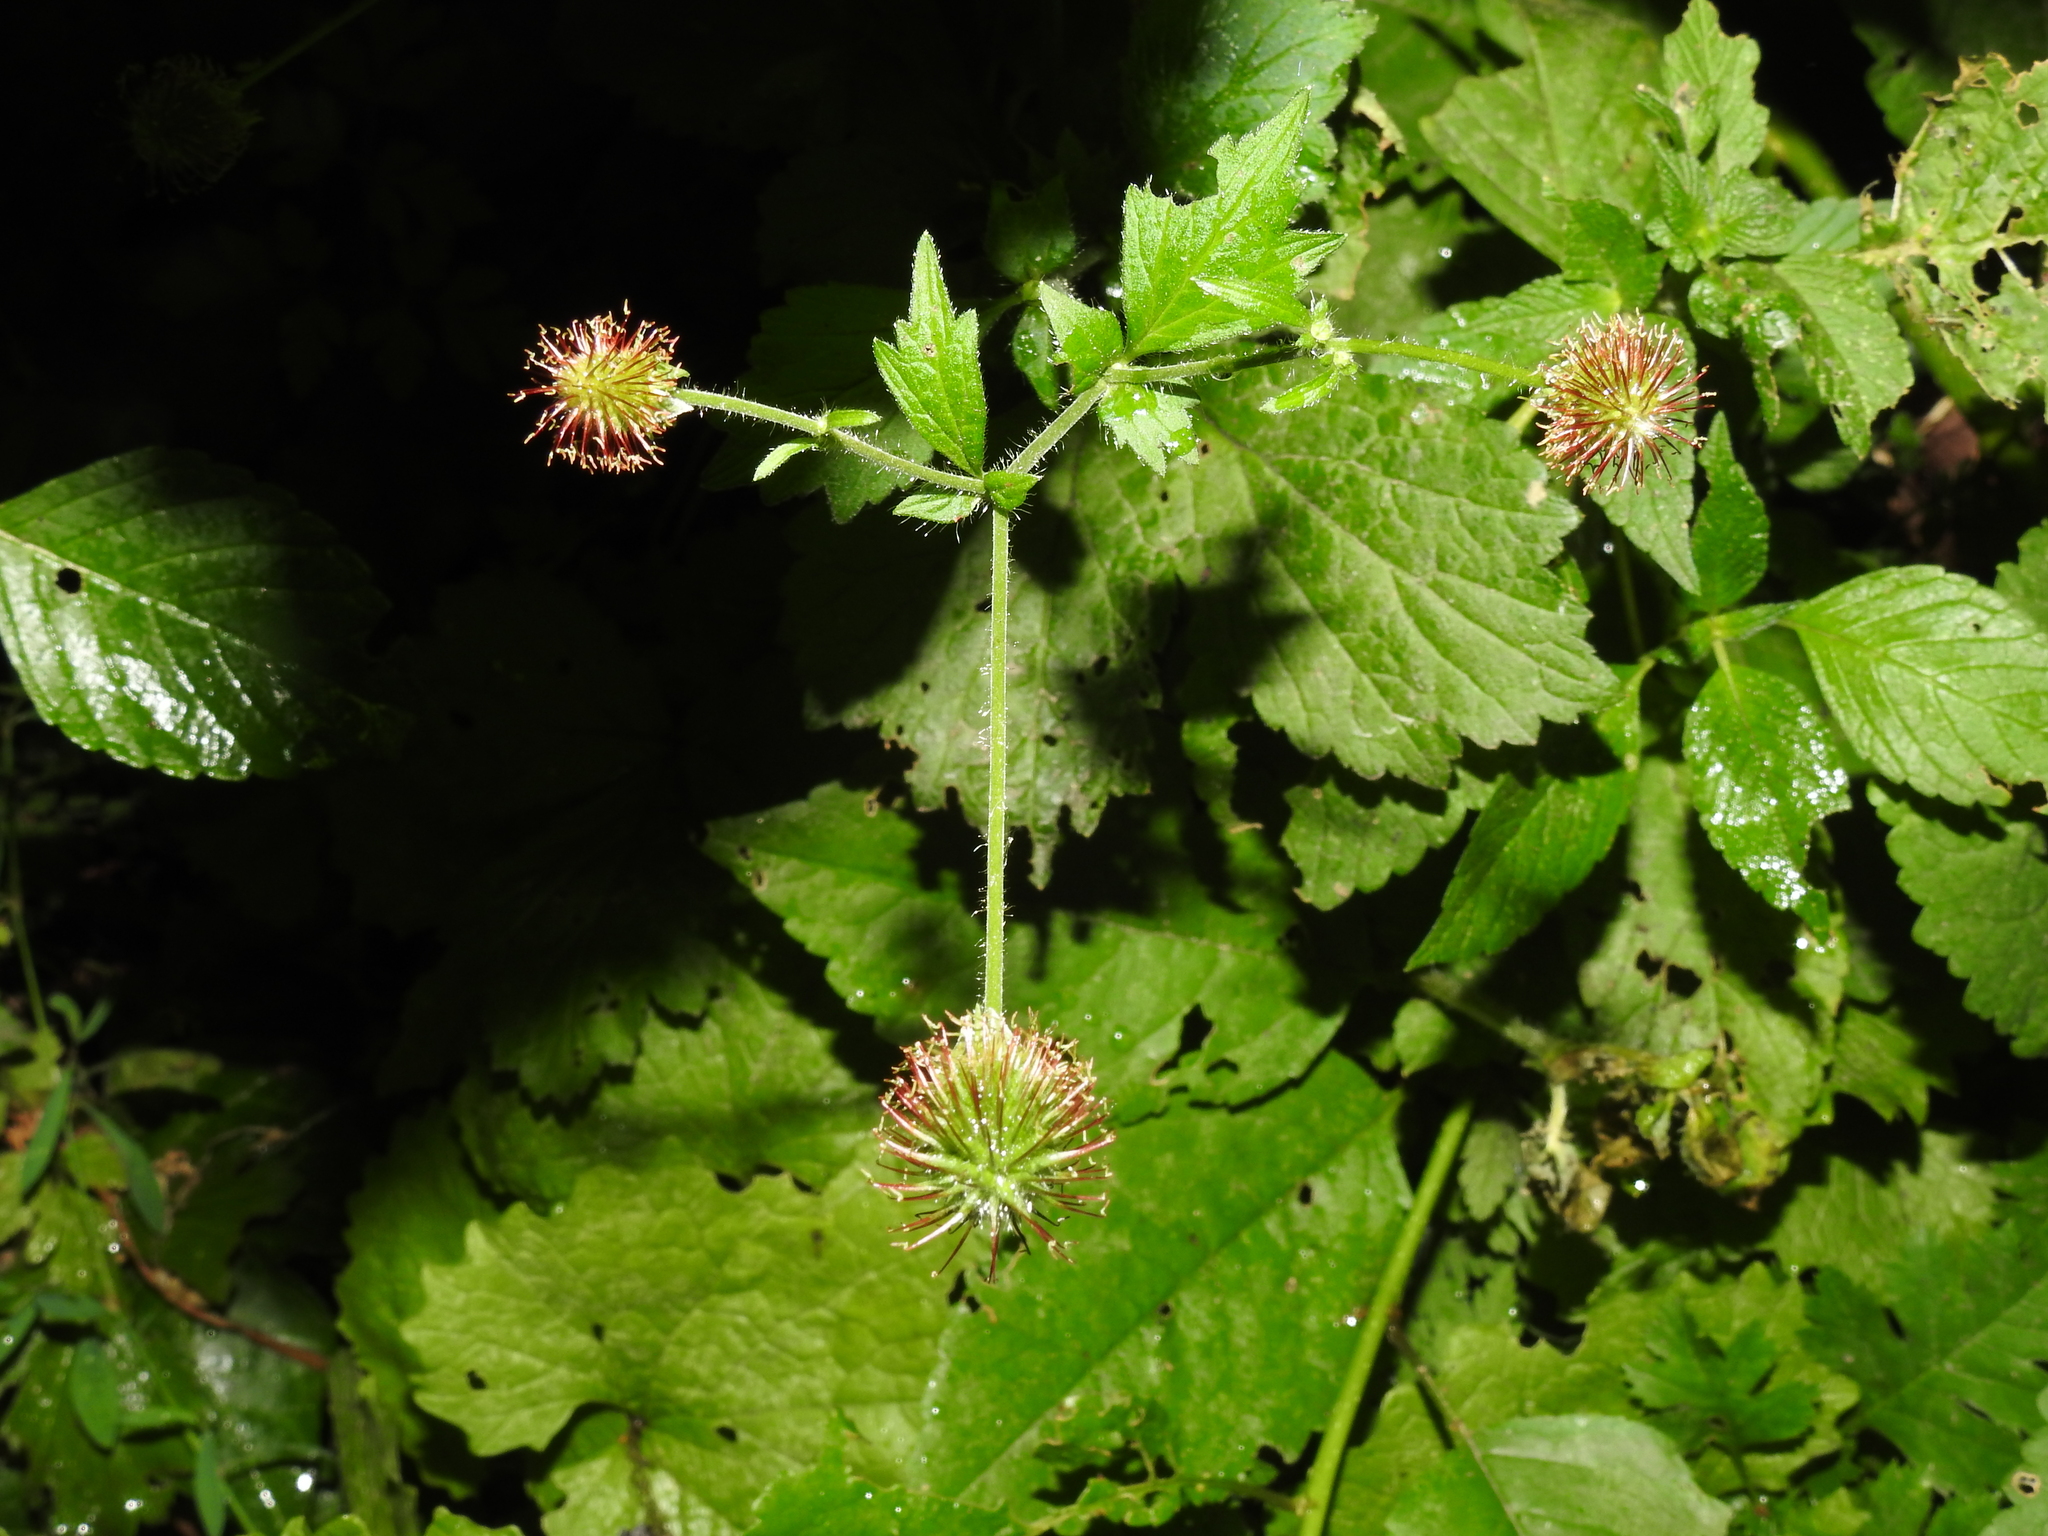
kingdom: Plantae
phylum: Tracheophyta
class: Magnoliopsida
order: Rosales
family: Rosaceae
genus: Geum
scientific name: Geum urbanum
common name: Wood avens
